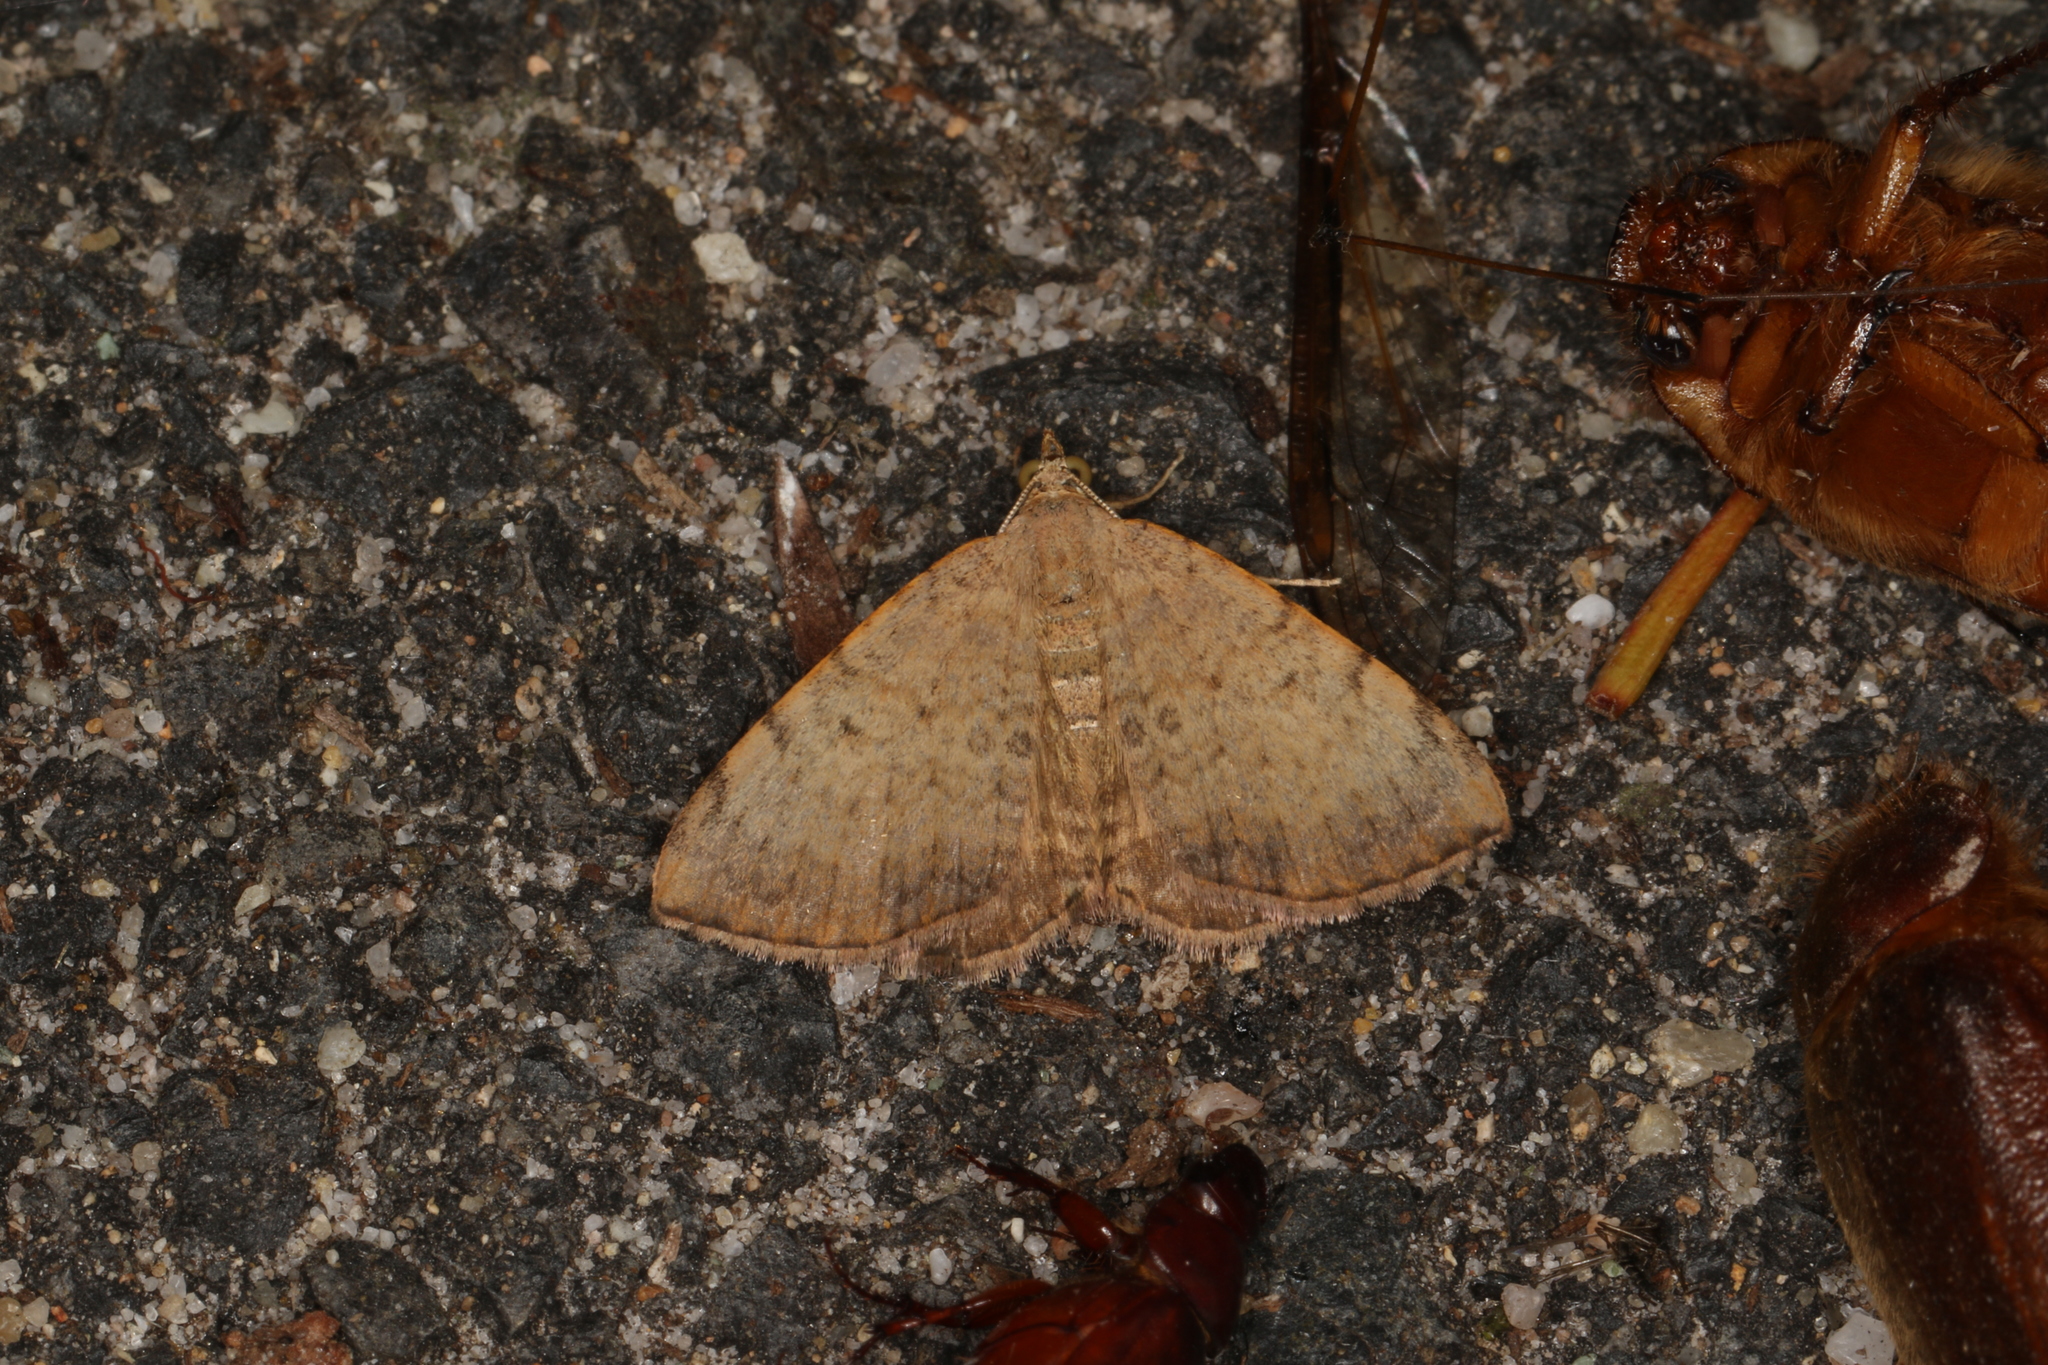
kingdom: Animalia
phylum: Arthropoda
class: Insecta
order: Lepidoptera
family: Geometridae
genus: Chrysolarentia
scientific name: Chrysolarentia mecynata
